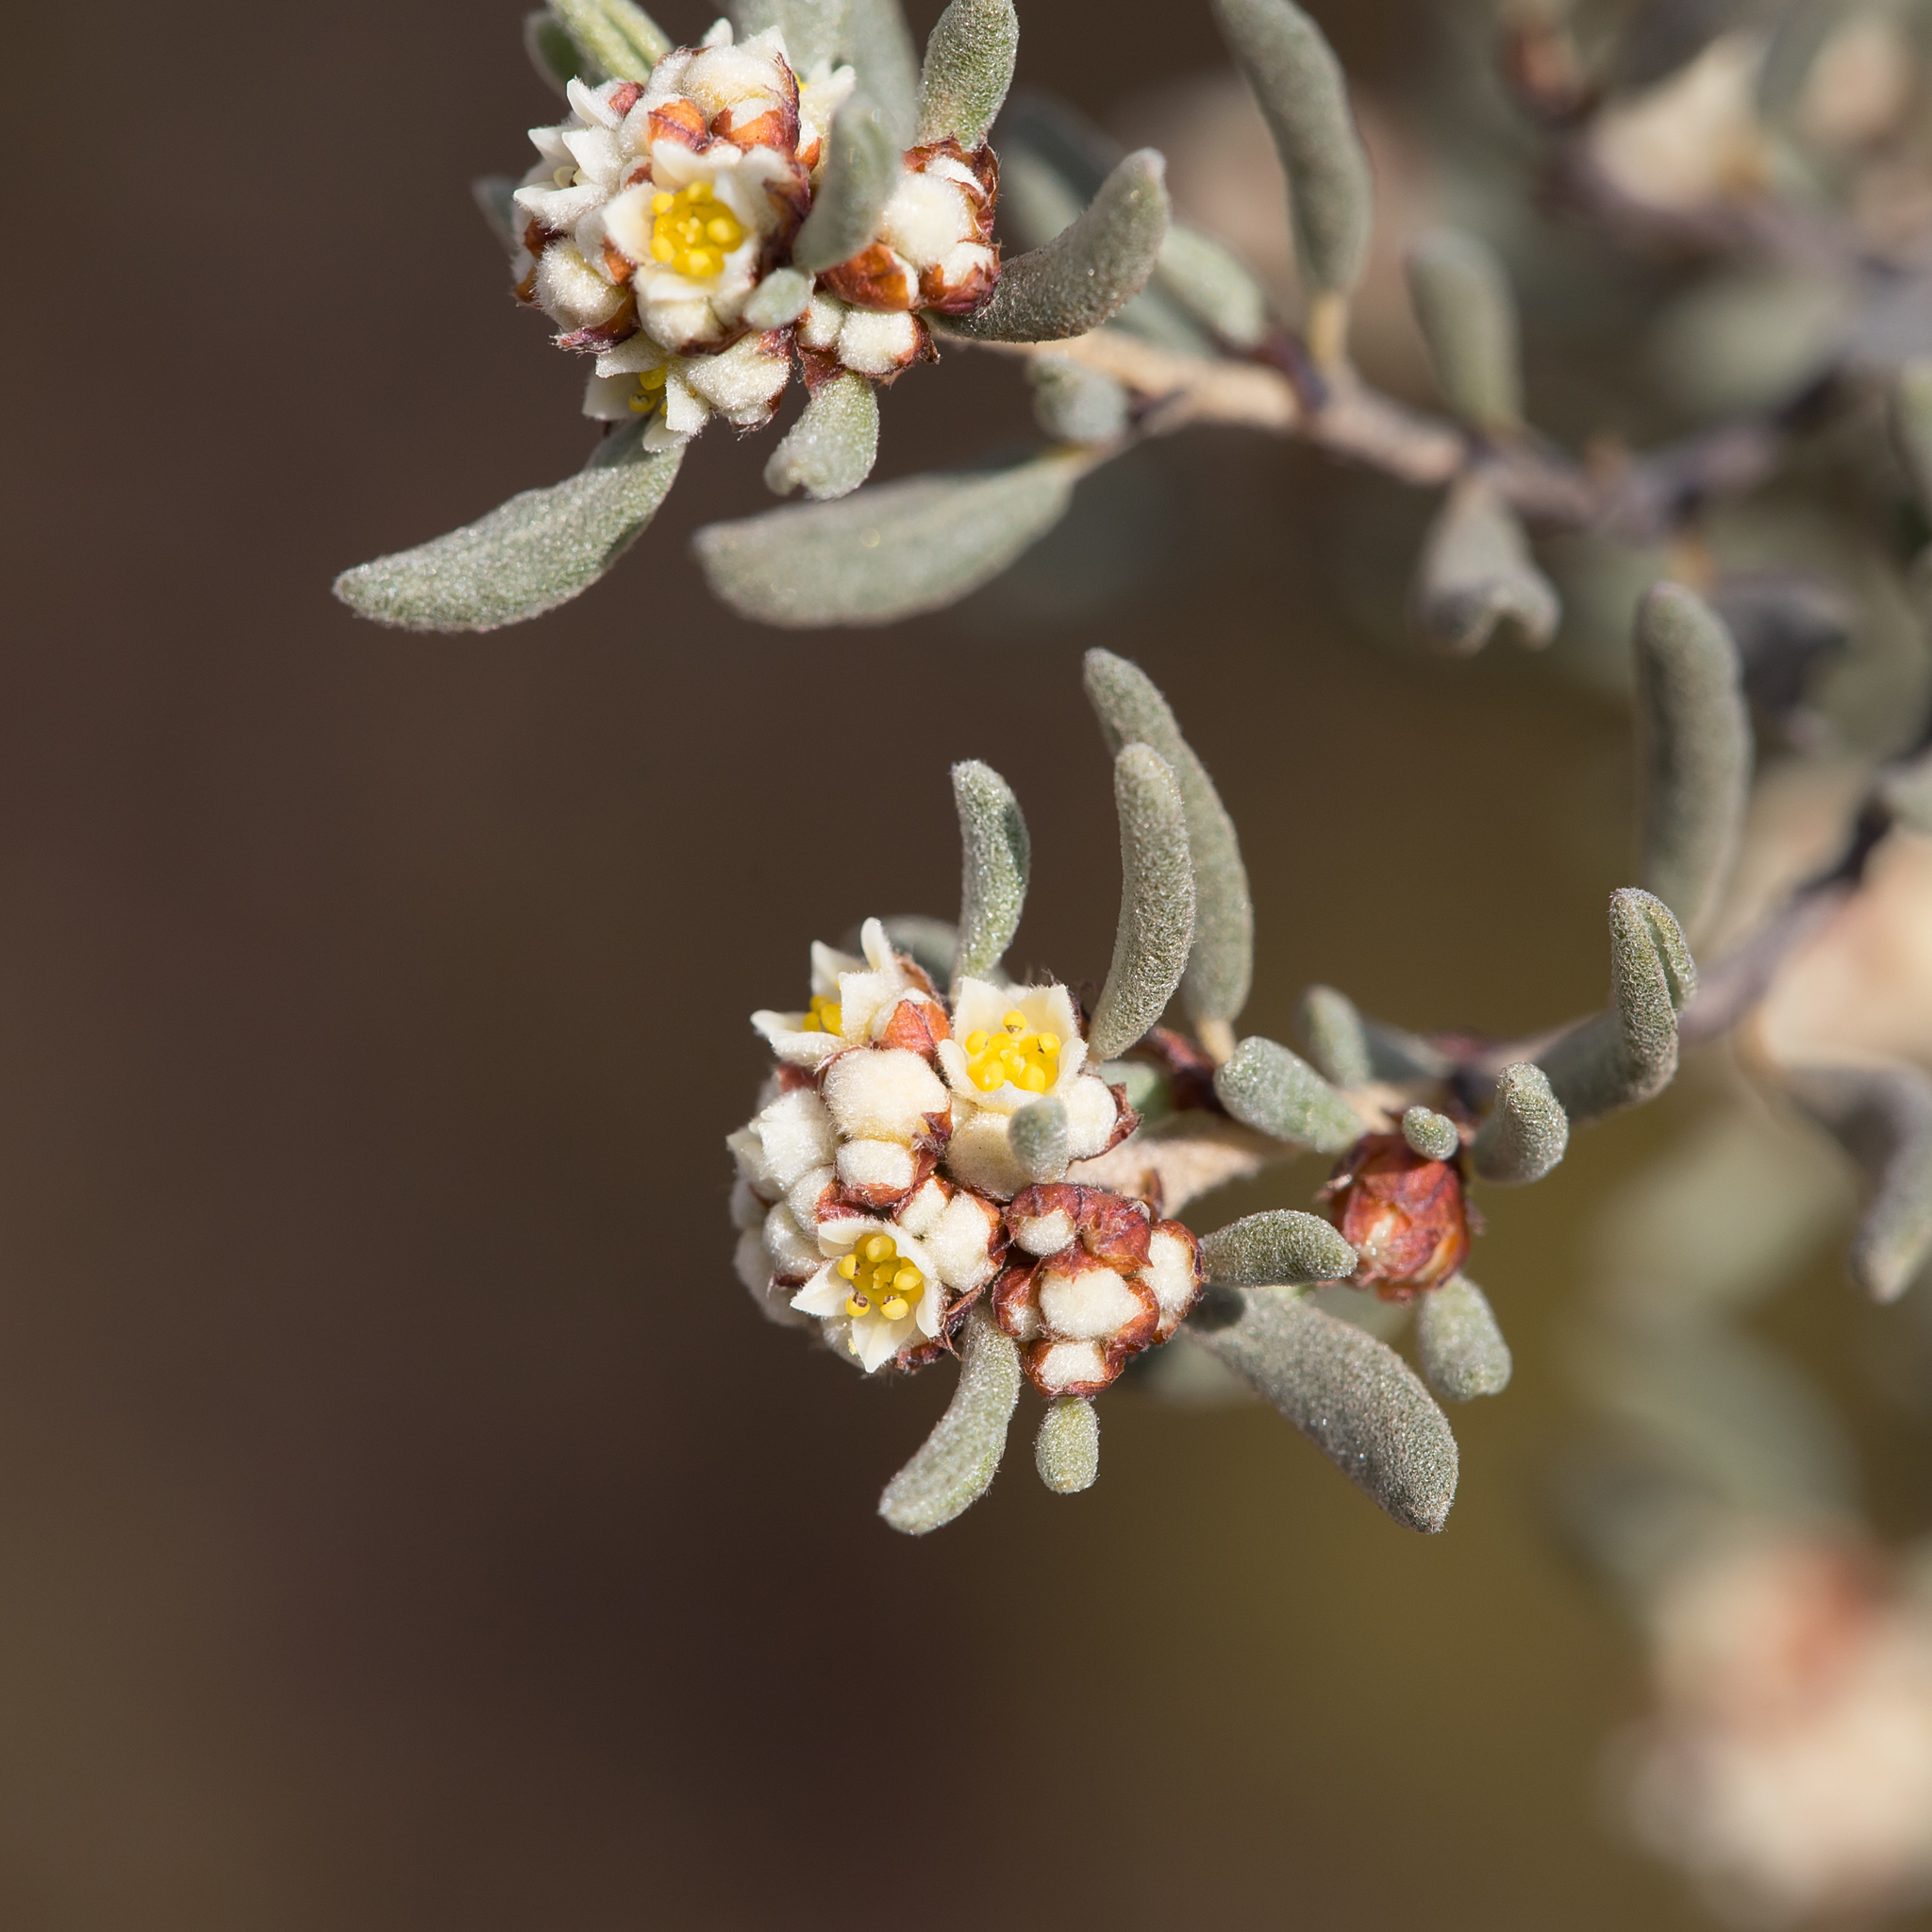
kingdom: Plantae
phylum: Tracheophyta
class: Magnoliopsida
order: Rosales
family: Rhamnaceae
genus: Spyridium
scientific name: Spyridium subochreatum
